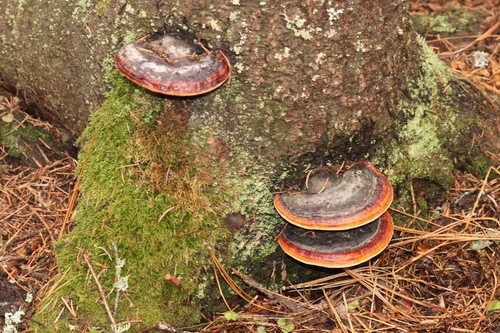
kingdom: Fungi
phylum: Basidiomycota
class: Agaricomycetes
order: Polyporales
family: Fomitopsidaceae
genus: Fomitopsis
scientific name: Fomitopsis pinicola
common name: Red-belted bracket
